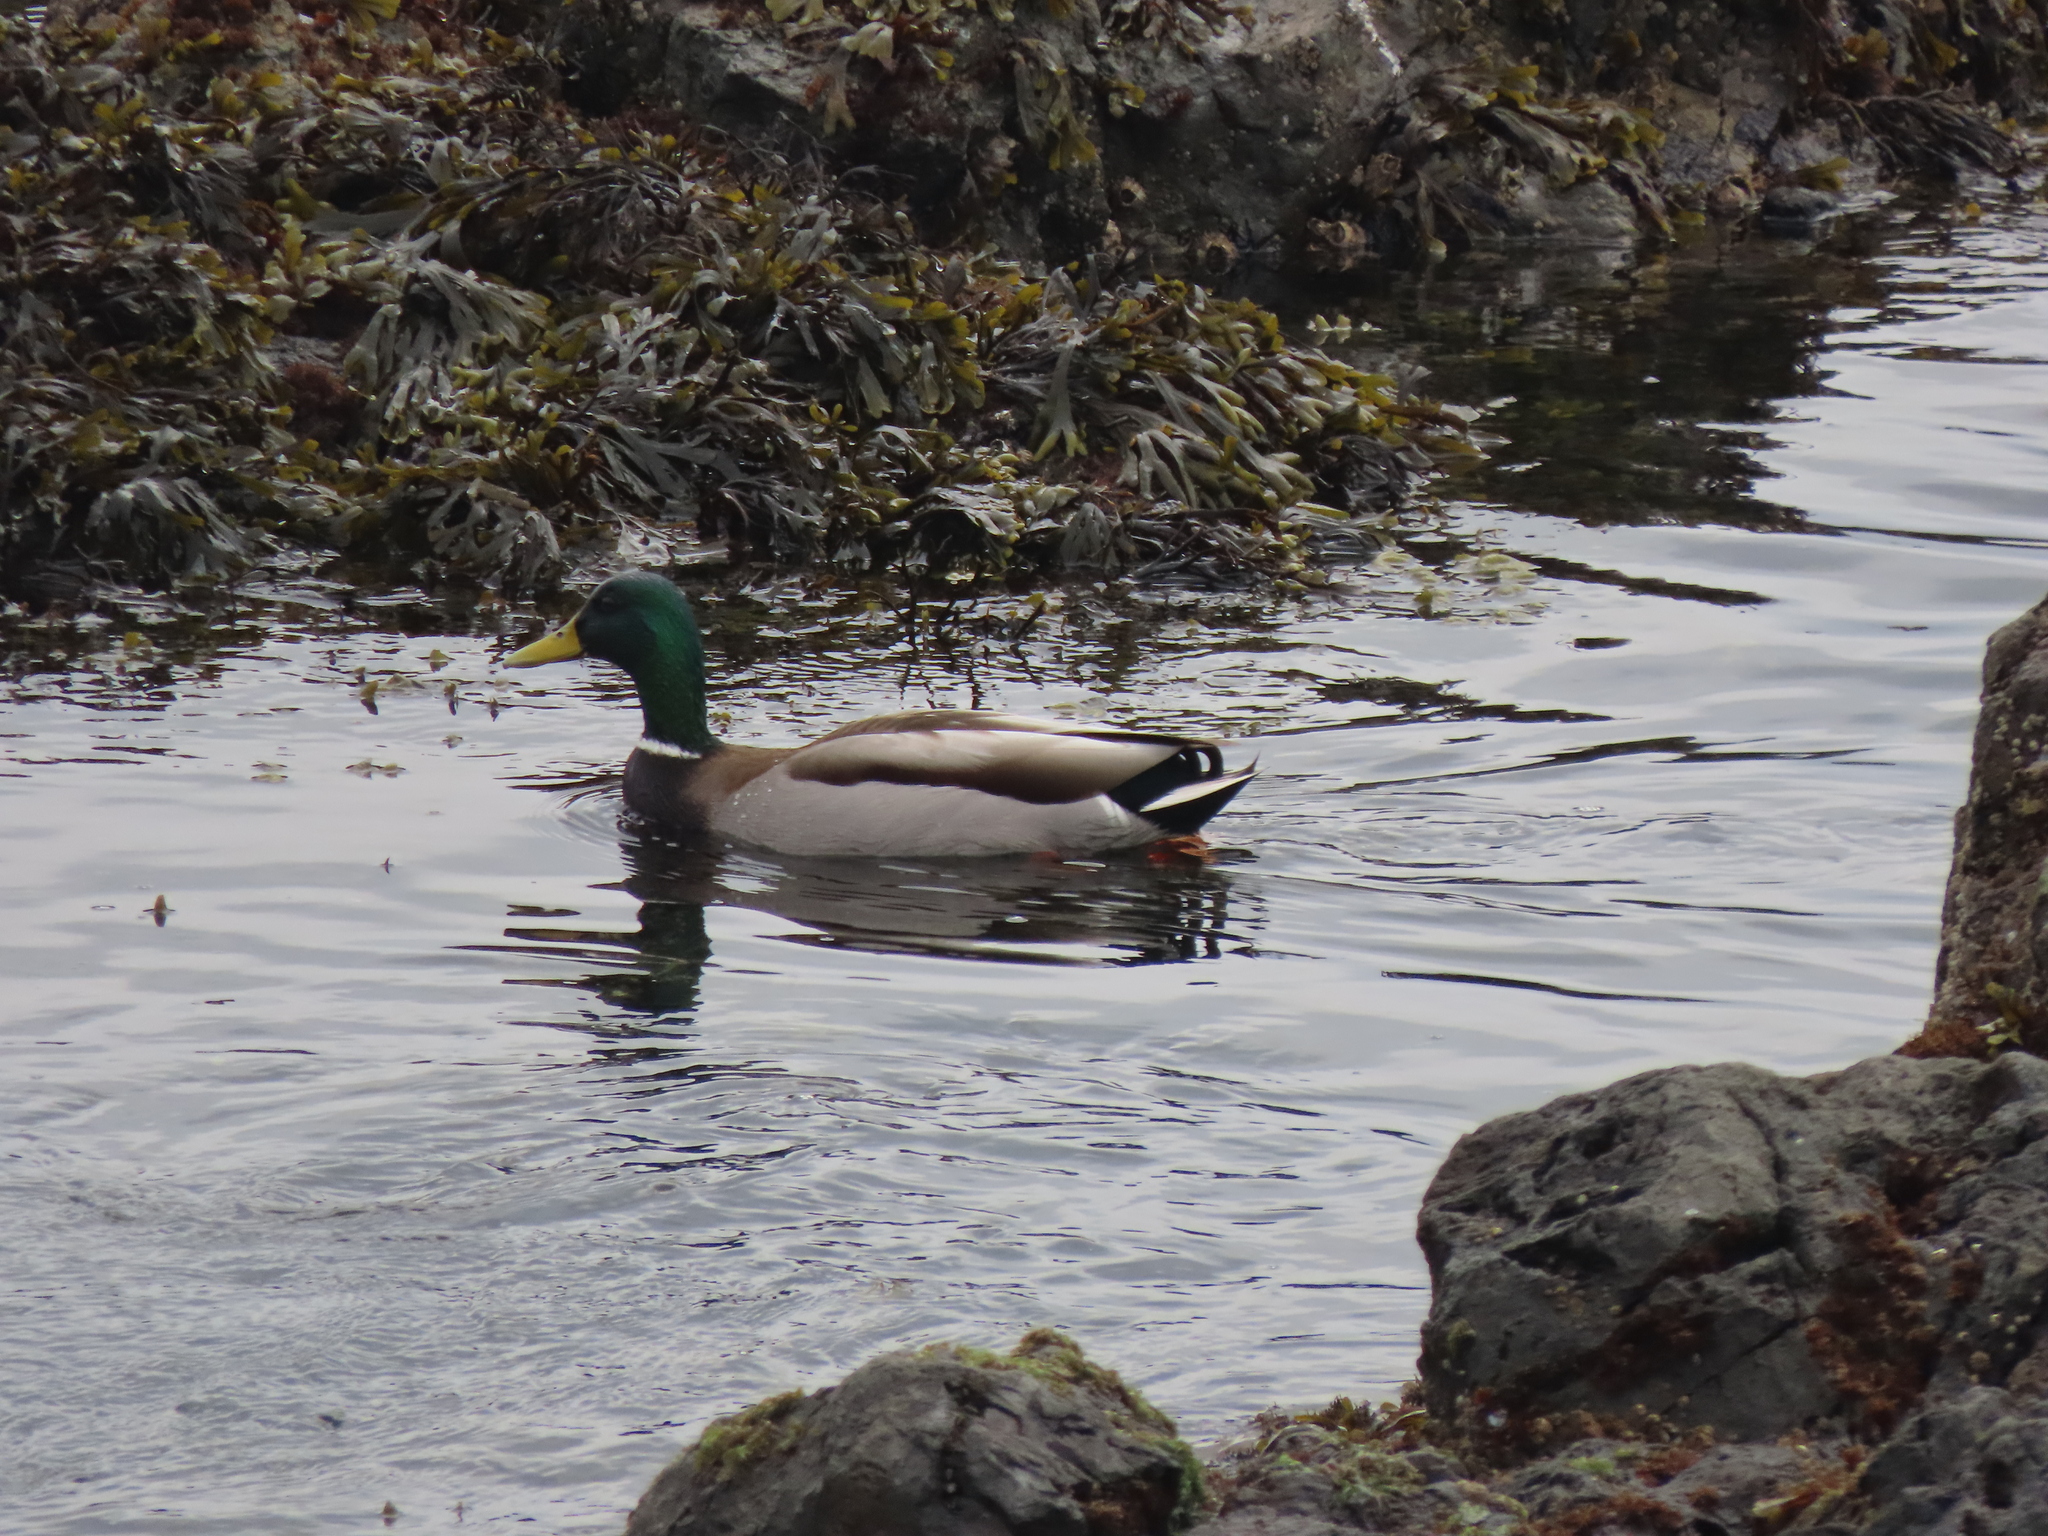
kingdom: Animalia
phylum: Chordata
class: Aves
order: Anseriformes
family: Anatidae
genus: Anas
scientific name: Anas platyrhynchos
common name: Mallard
